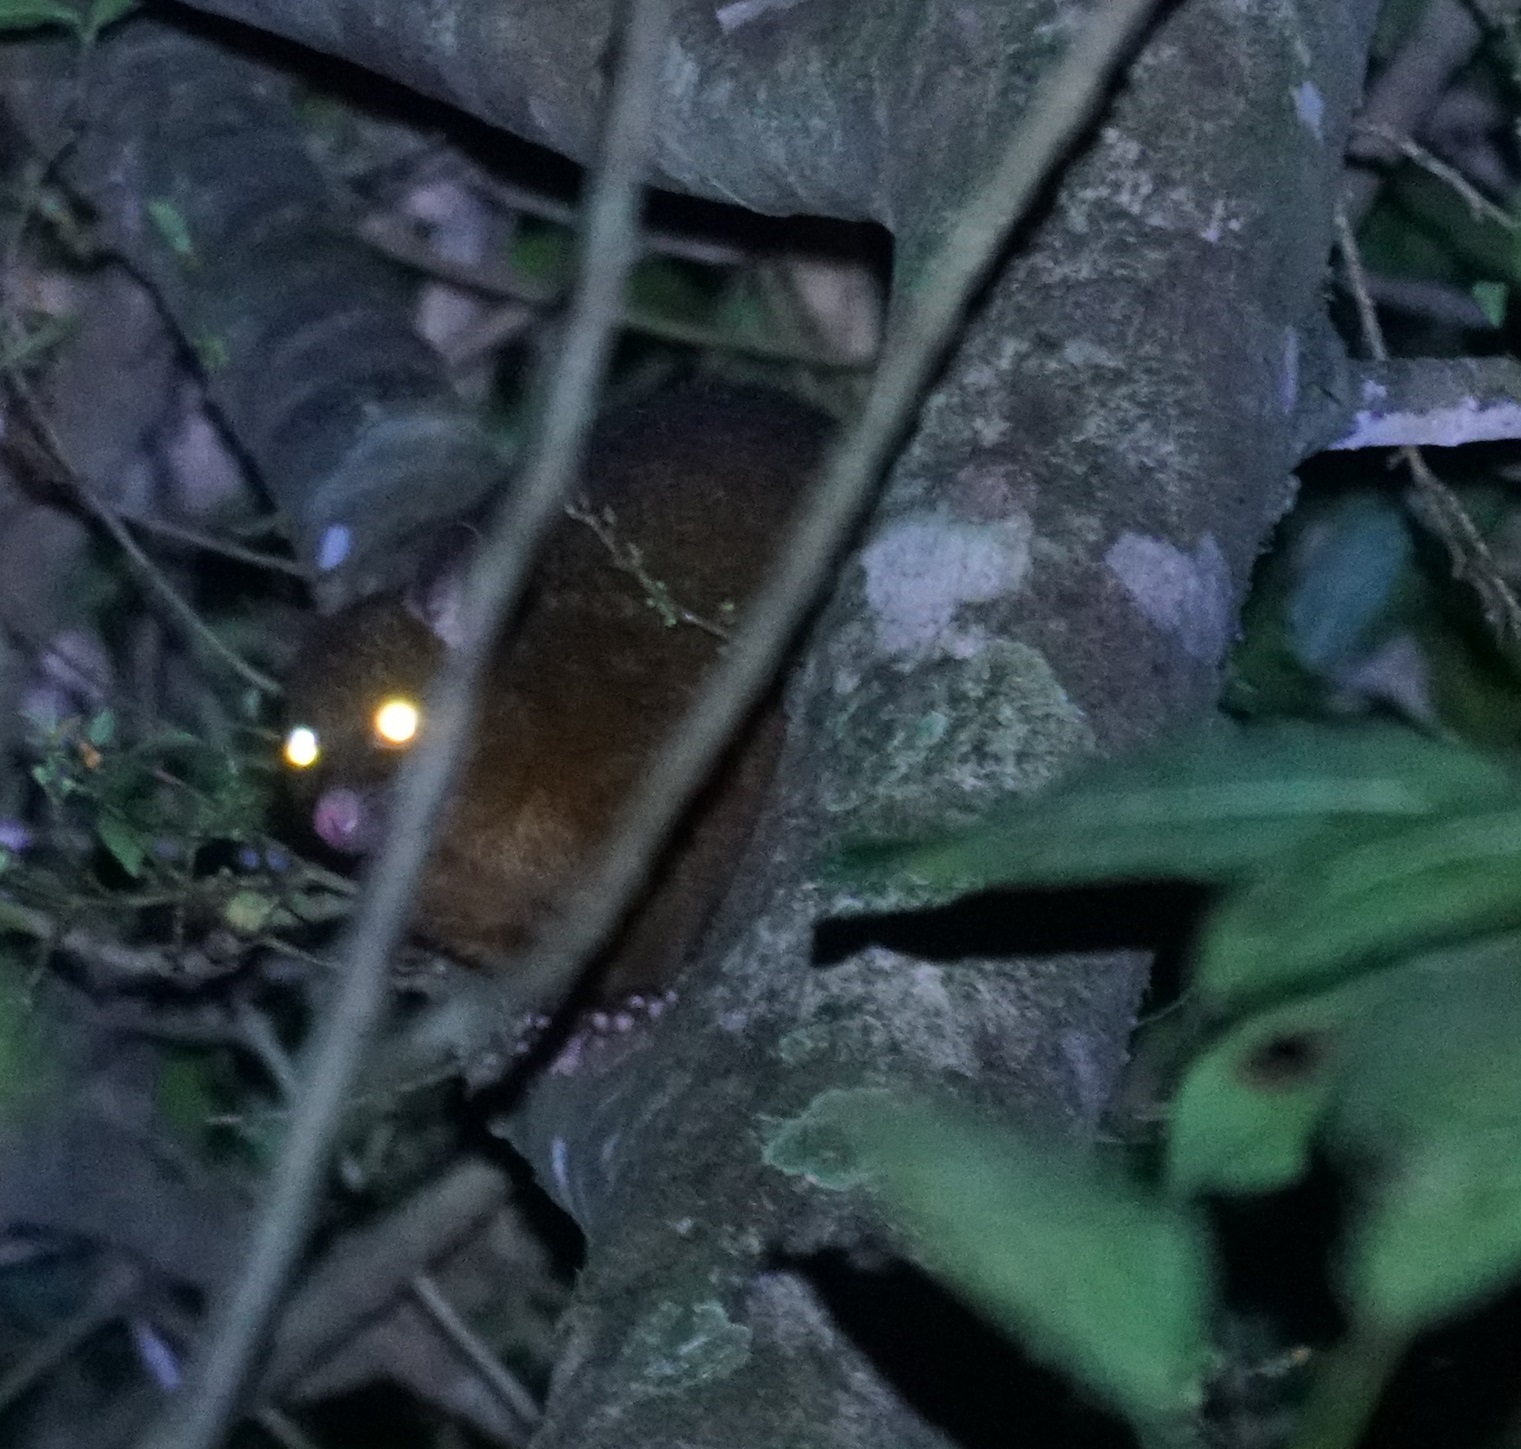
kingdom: Animalia
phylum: Chordata
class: Mammalia
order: Diprotodontia
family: Phalangeridae
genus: Trichosurus
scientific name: Trichosurus vulpecula
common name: Common brushtail
